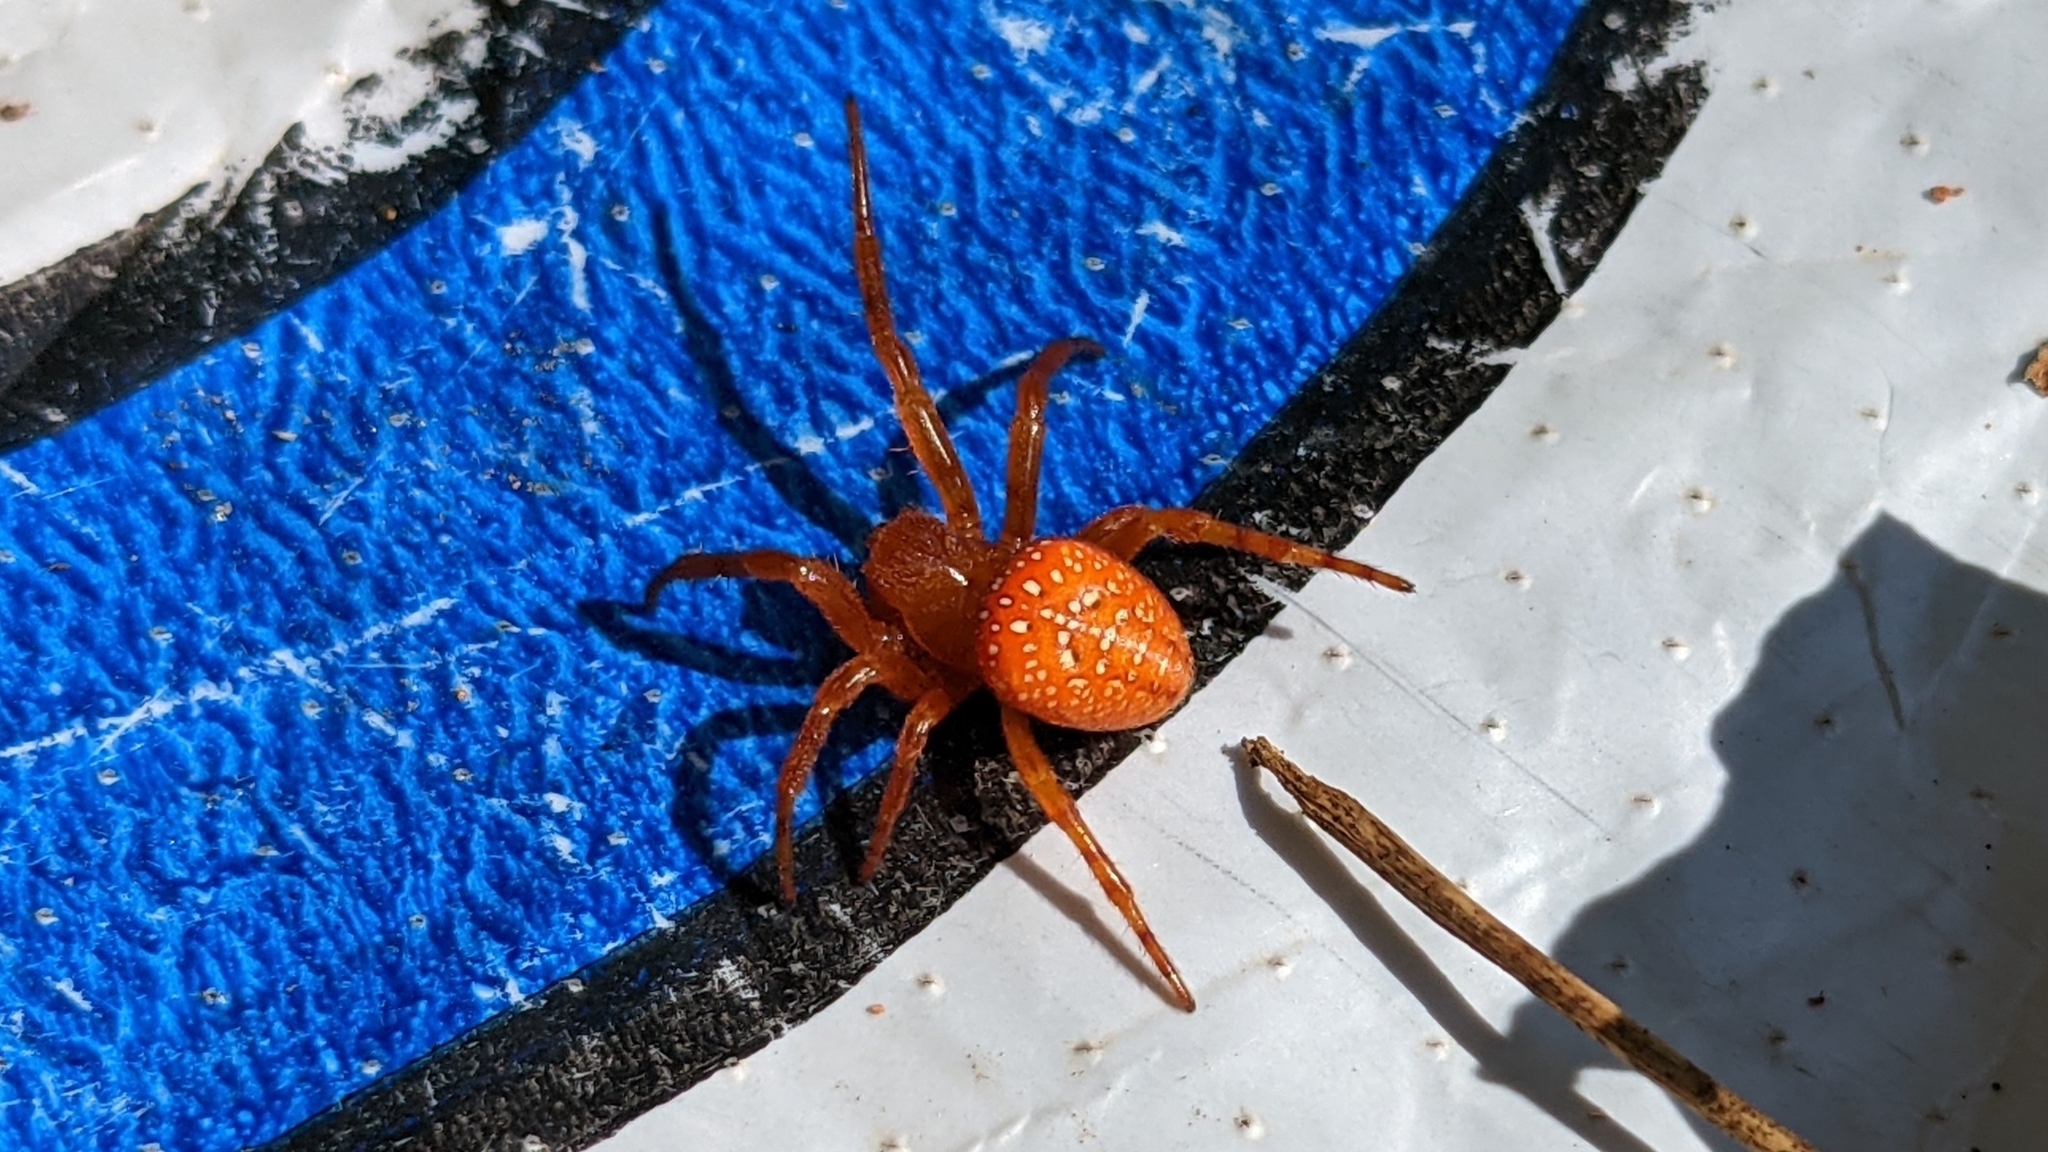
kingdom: Animalia
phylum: Arthropoda
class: Arachnida
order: Araneae
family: Araneidae
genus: Araneus
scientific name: Araneus iviei
